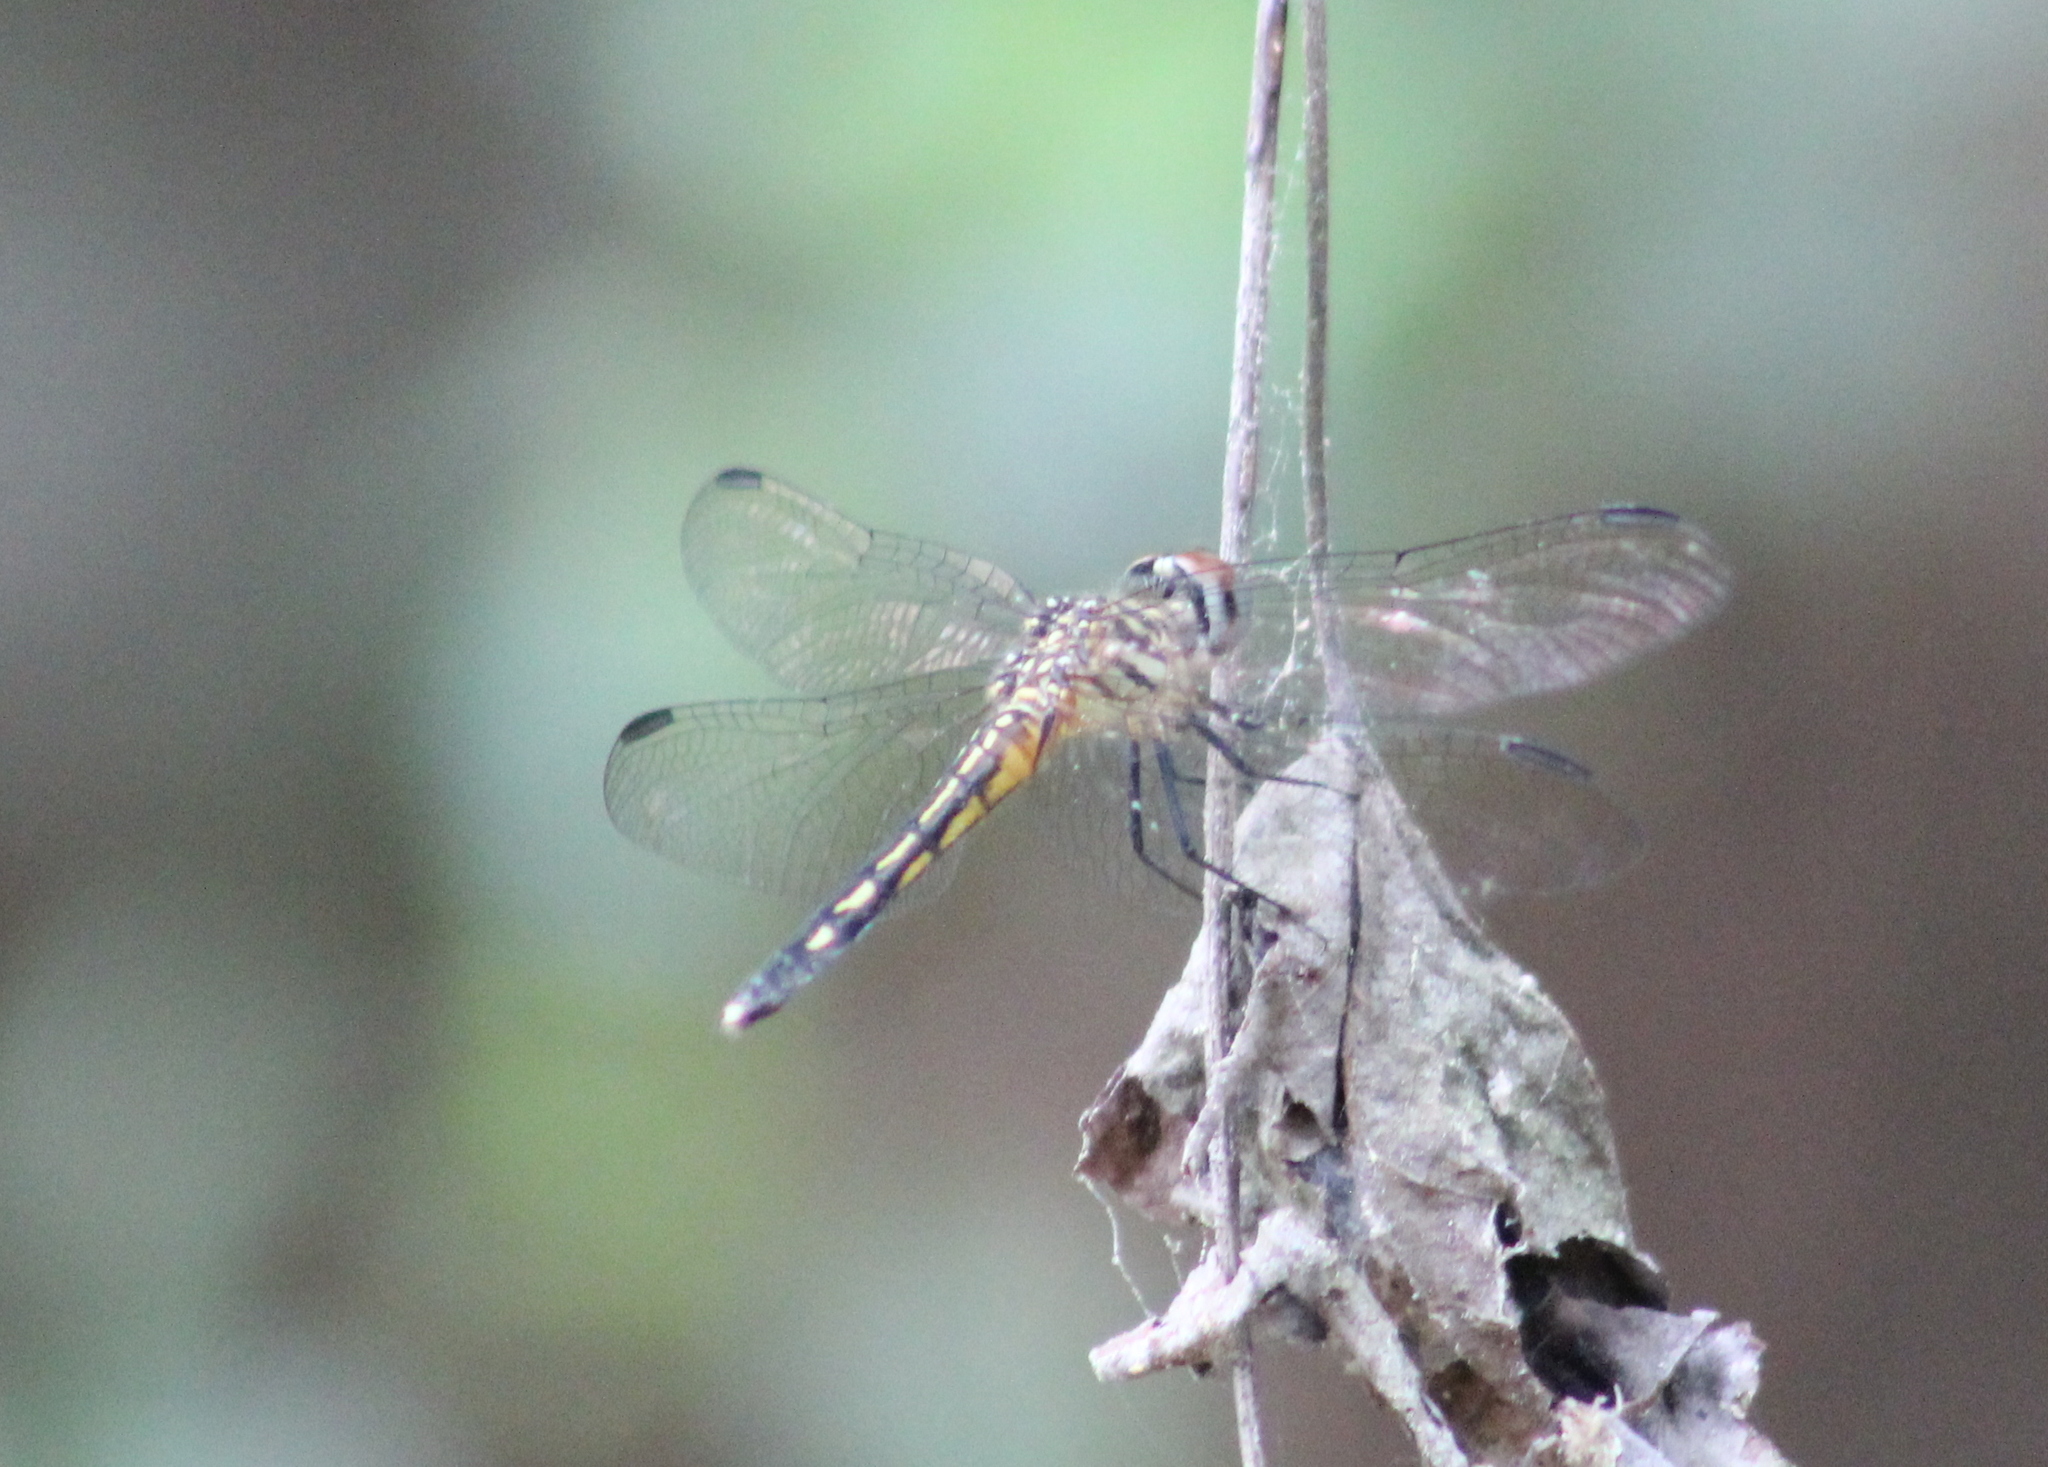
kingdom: Animalia
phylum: Arthropoda
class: Insecta
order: Odonata
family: Libellulidae
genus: Pachydiplax
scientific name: Pachydiplax longipennis
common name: Blue dasher
